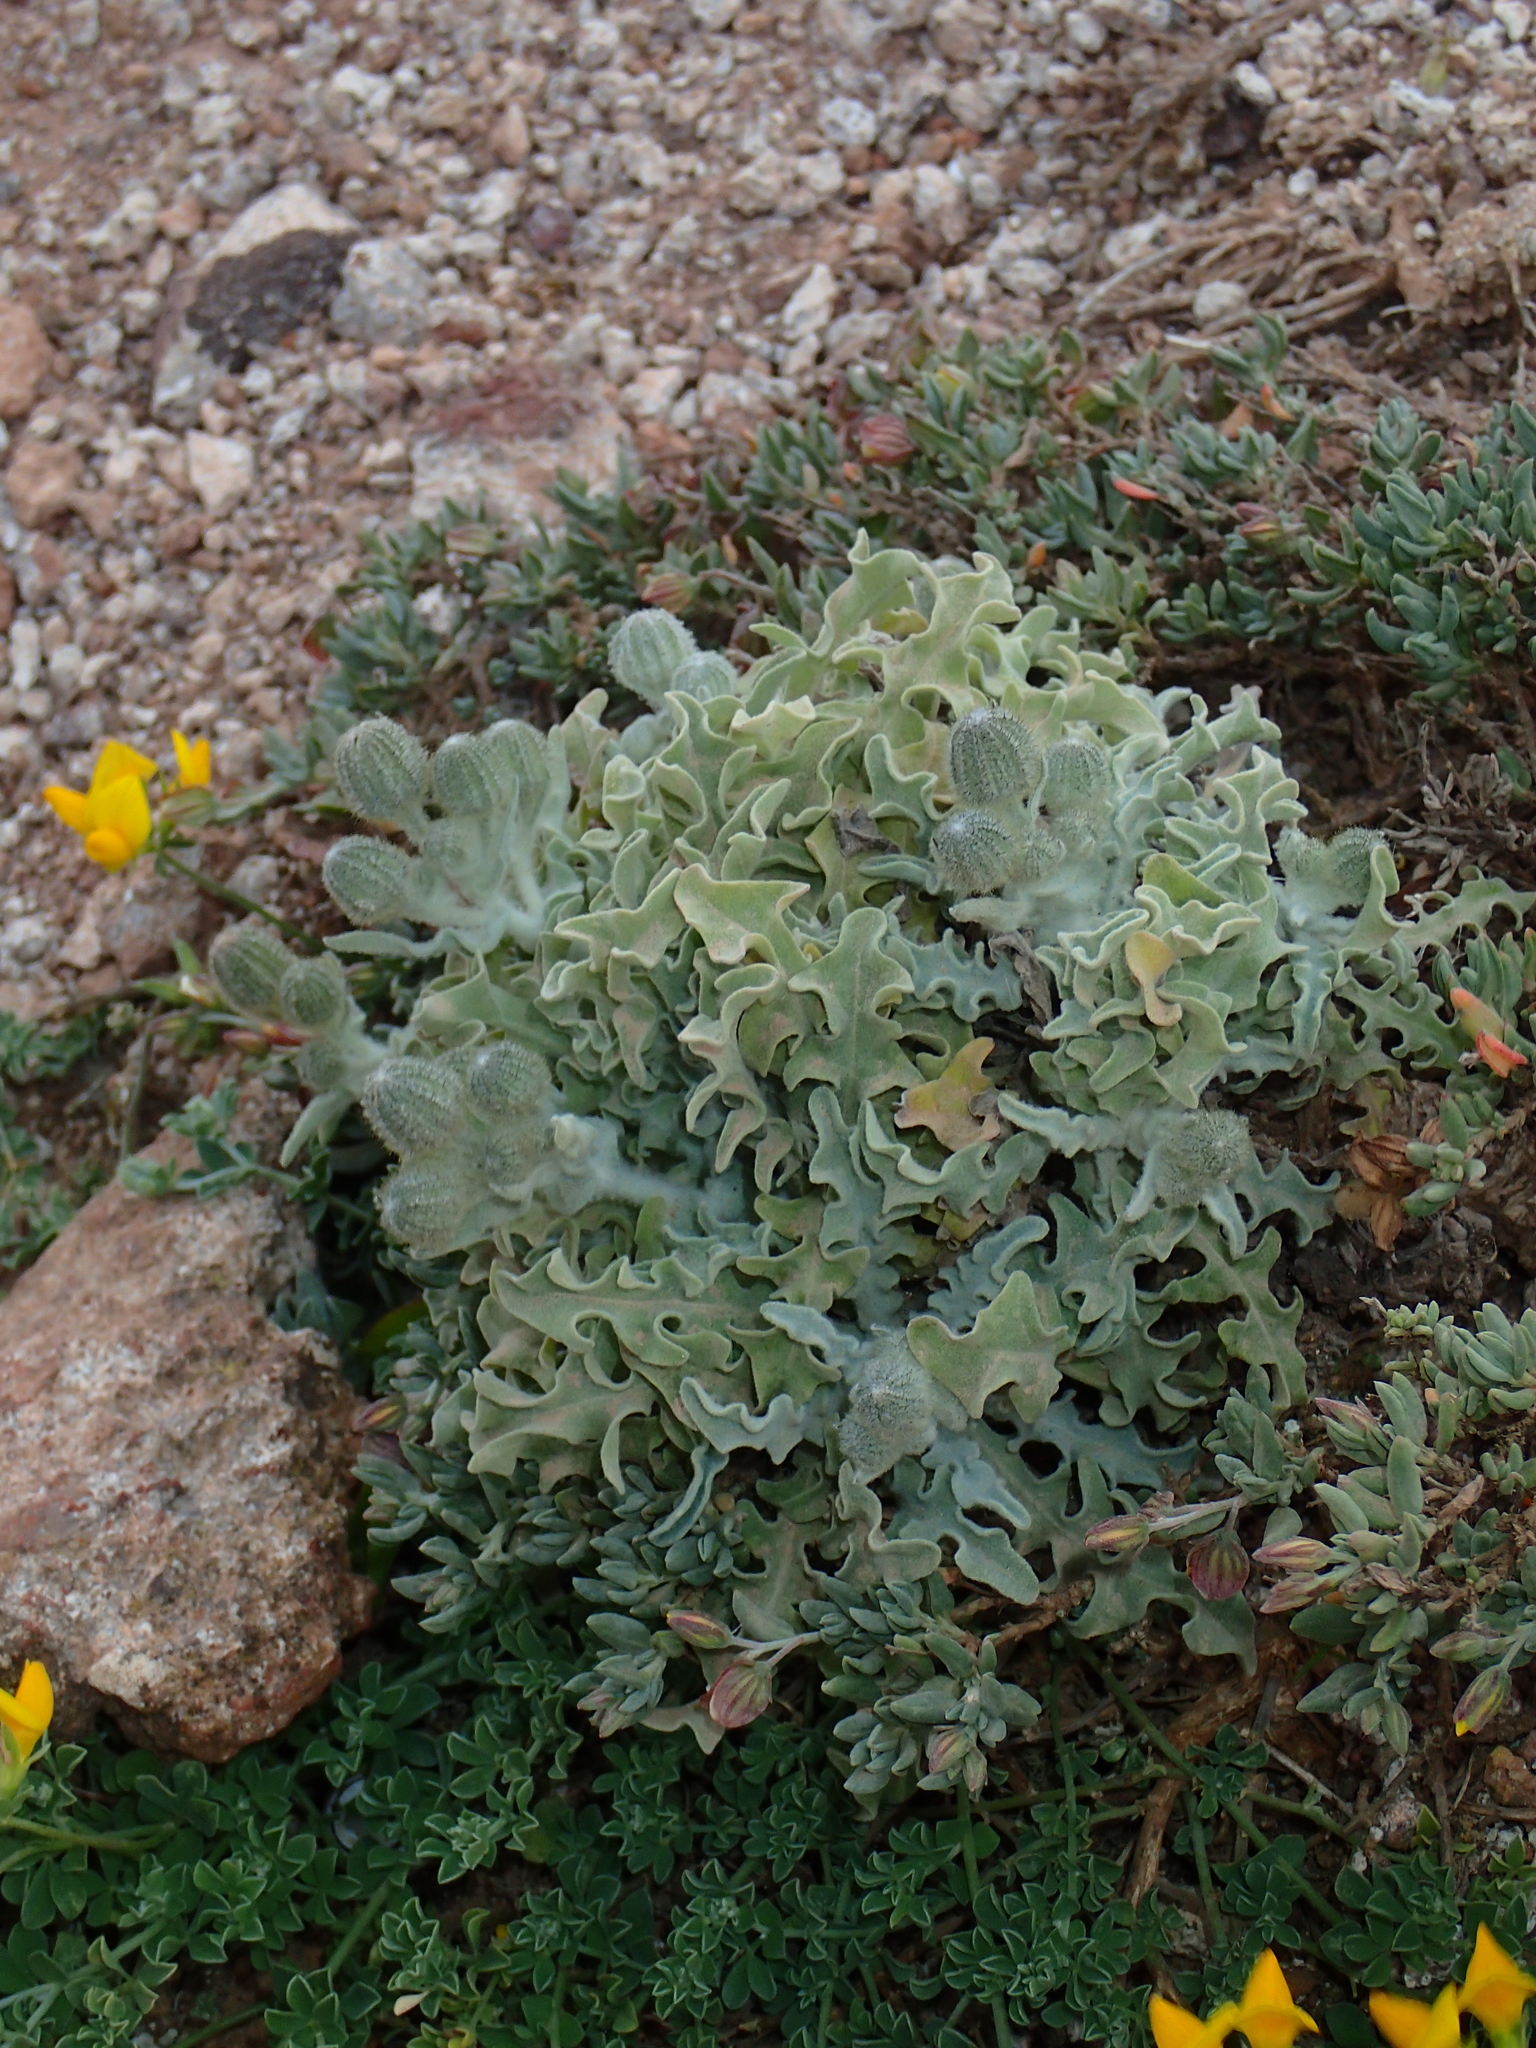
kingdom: Plantae
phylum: Tracheophyta
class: Magnoliopsida
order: Asterales
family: Asteraceae
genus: Andryala
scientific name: Andryala perezii
